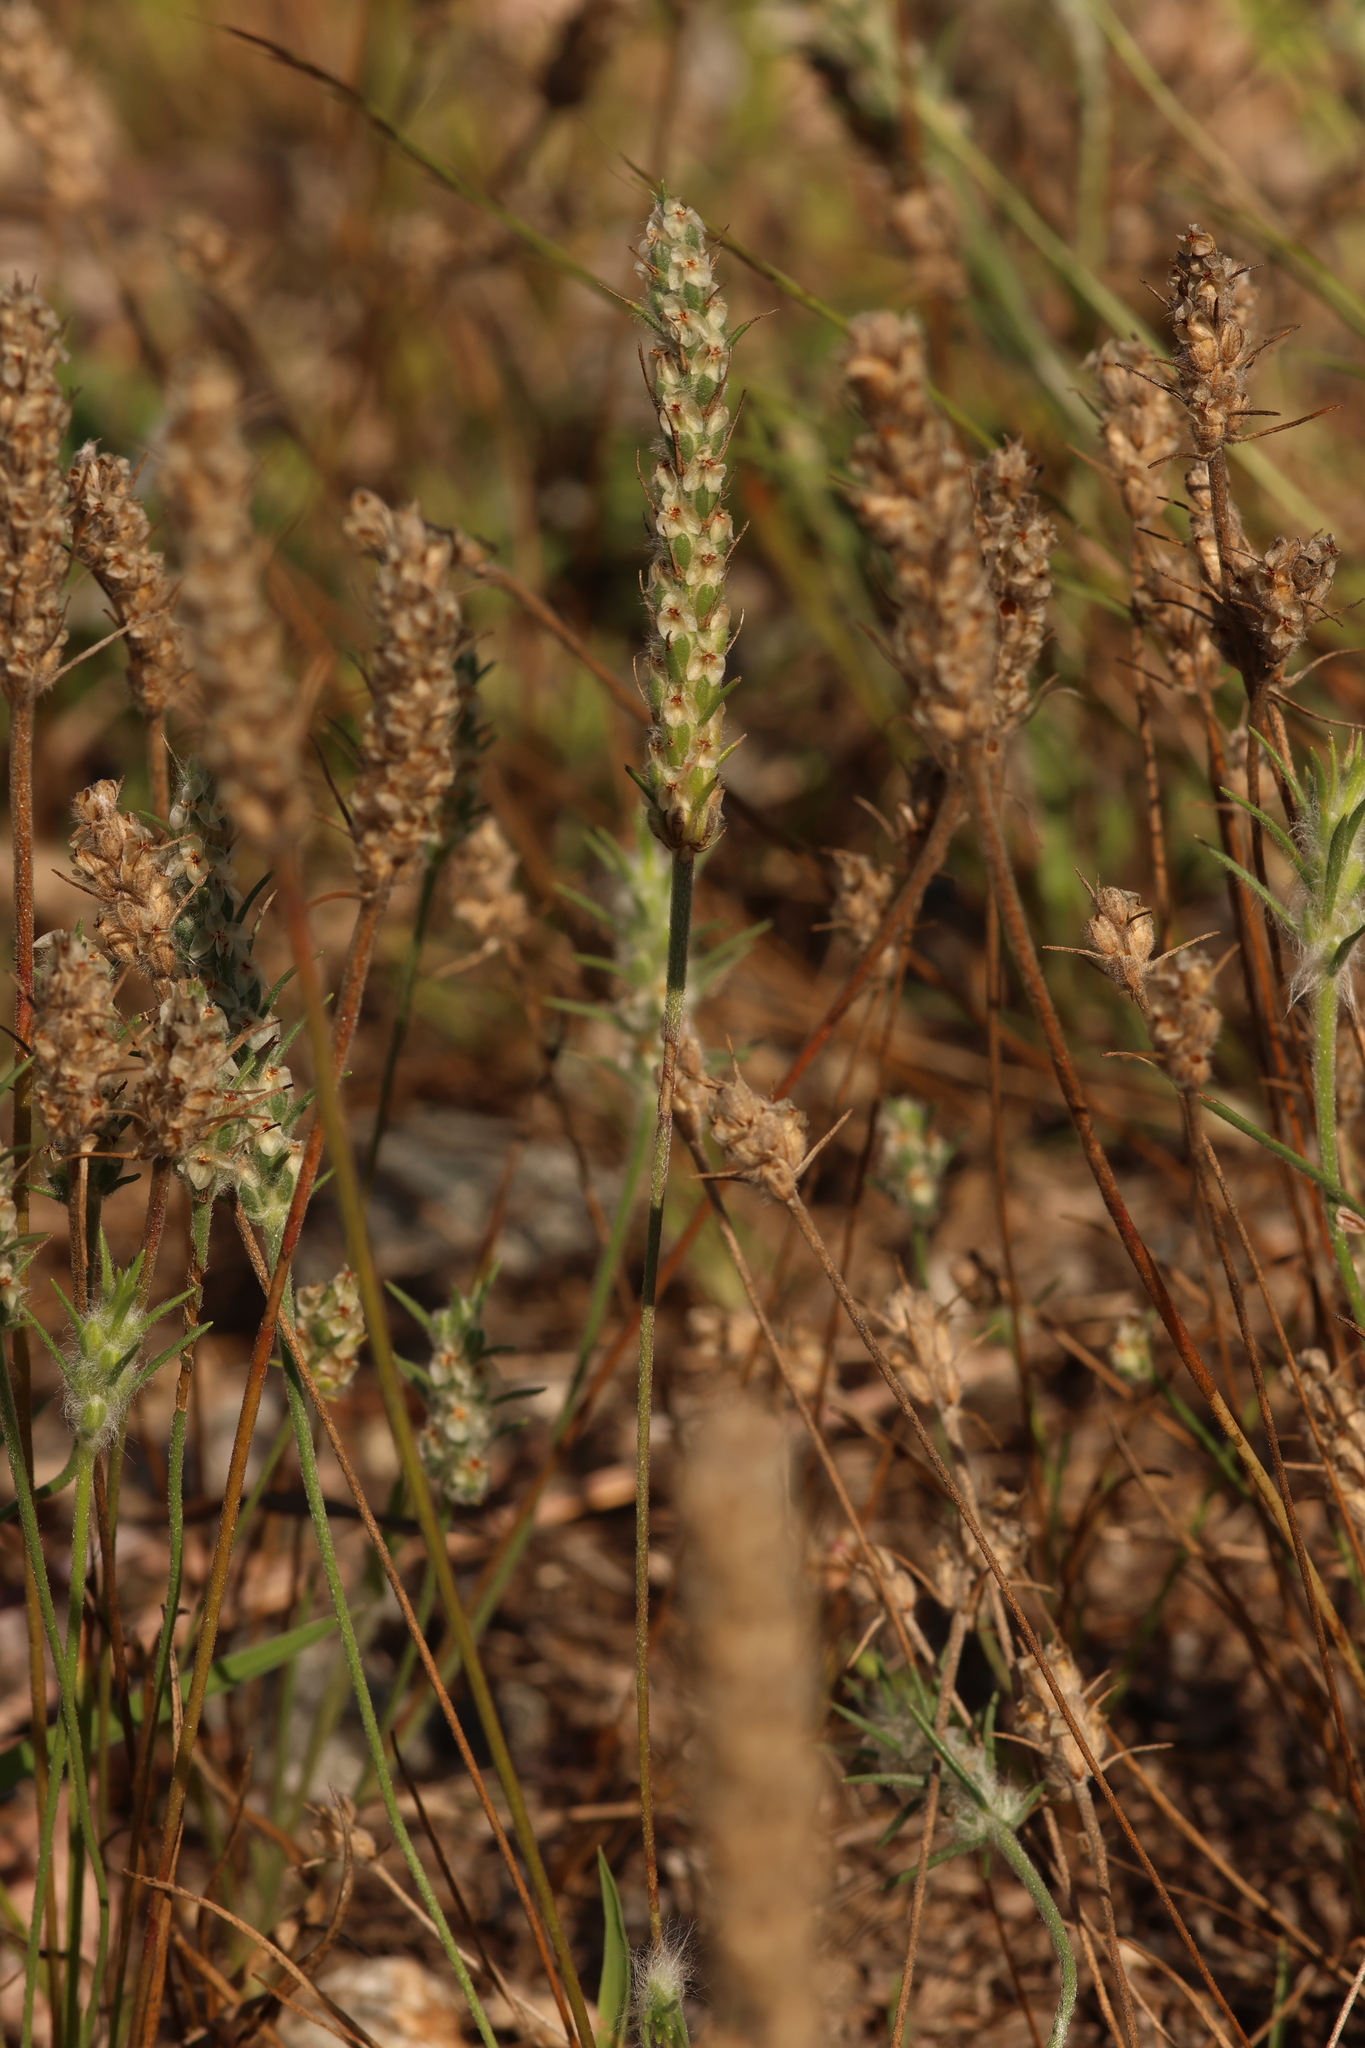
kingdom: Plantae
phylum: Tracheophyta
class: Magnoliopsida
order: Lamiales
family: Plantaginaceae
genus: Plantago
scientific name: Plantago aristata
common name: Bracted plantain
